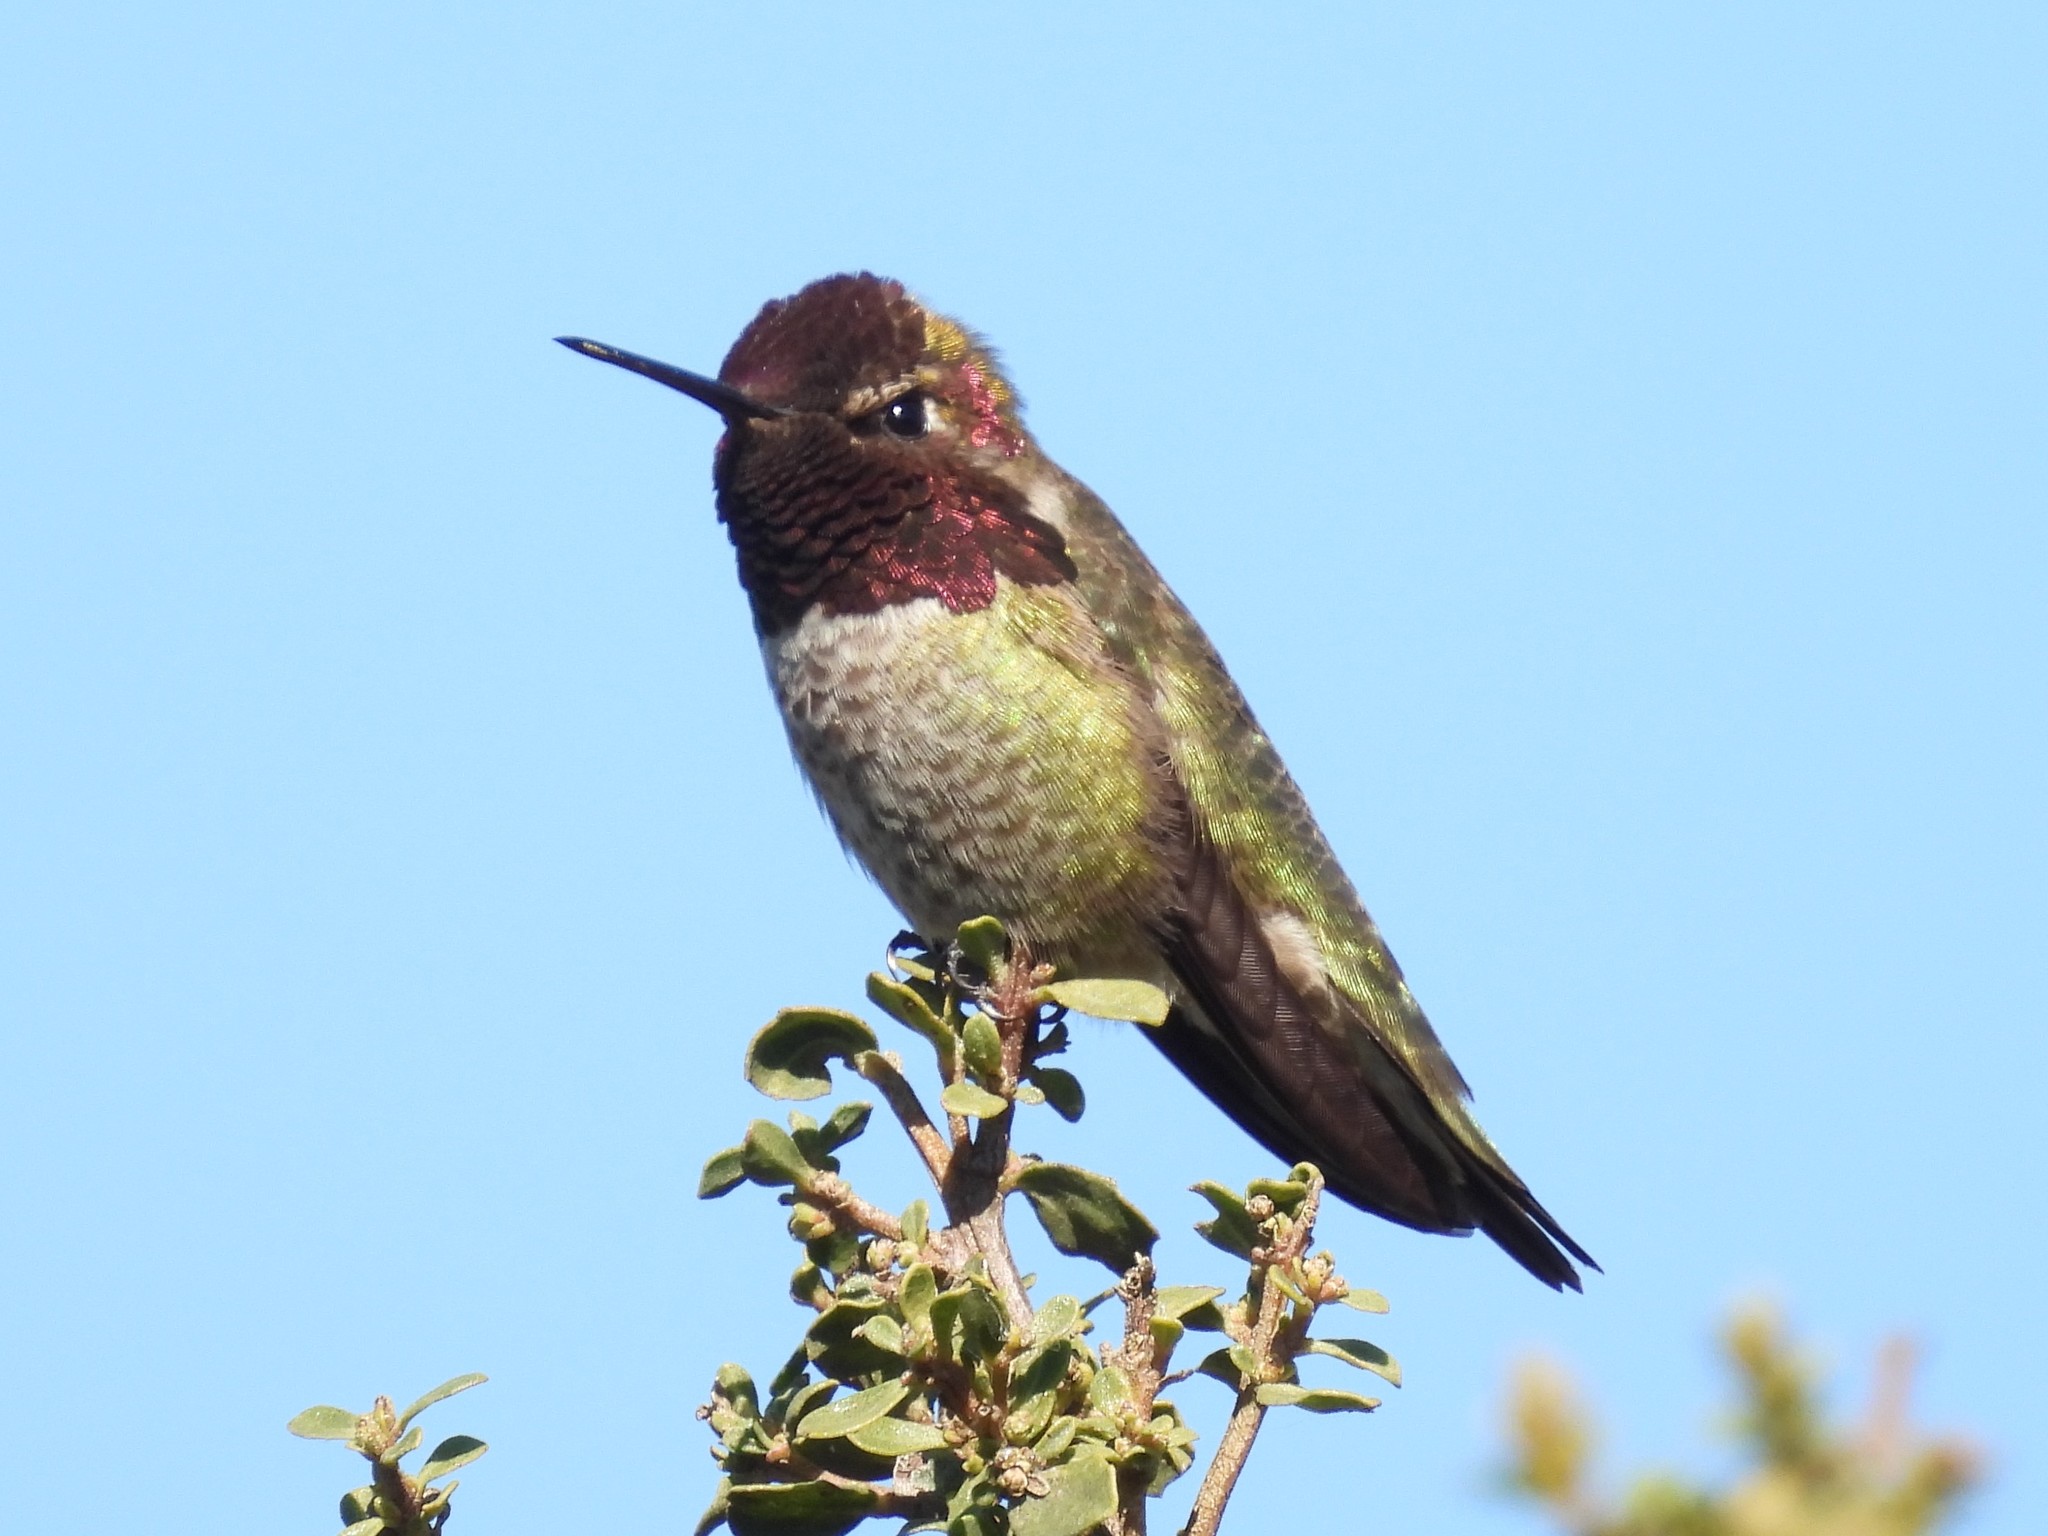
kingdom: Animalia
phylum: Chordata
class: Aves
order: Apodiformes
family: Trochilidae
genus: Calypte
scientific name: Calypte anna
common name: Anna's hummingbird
